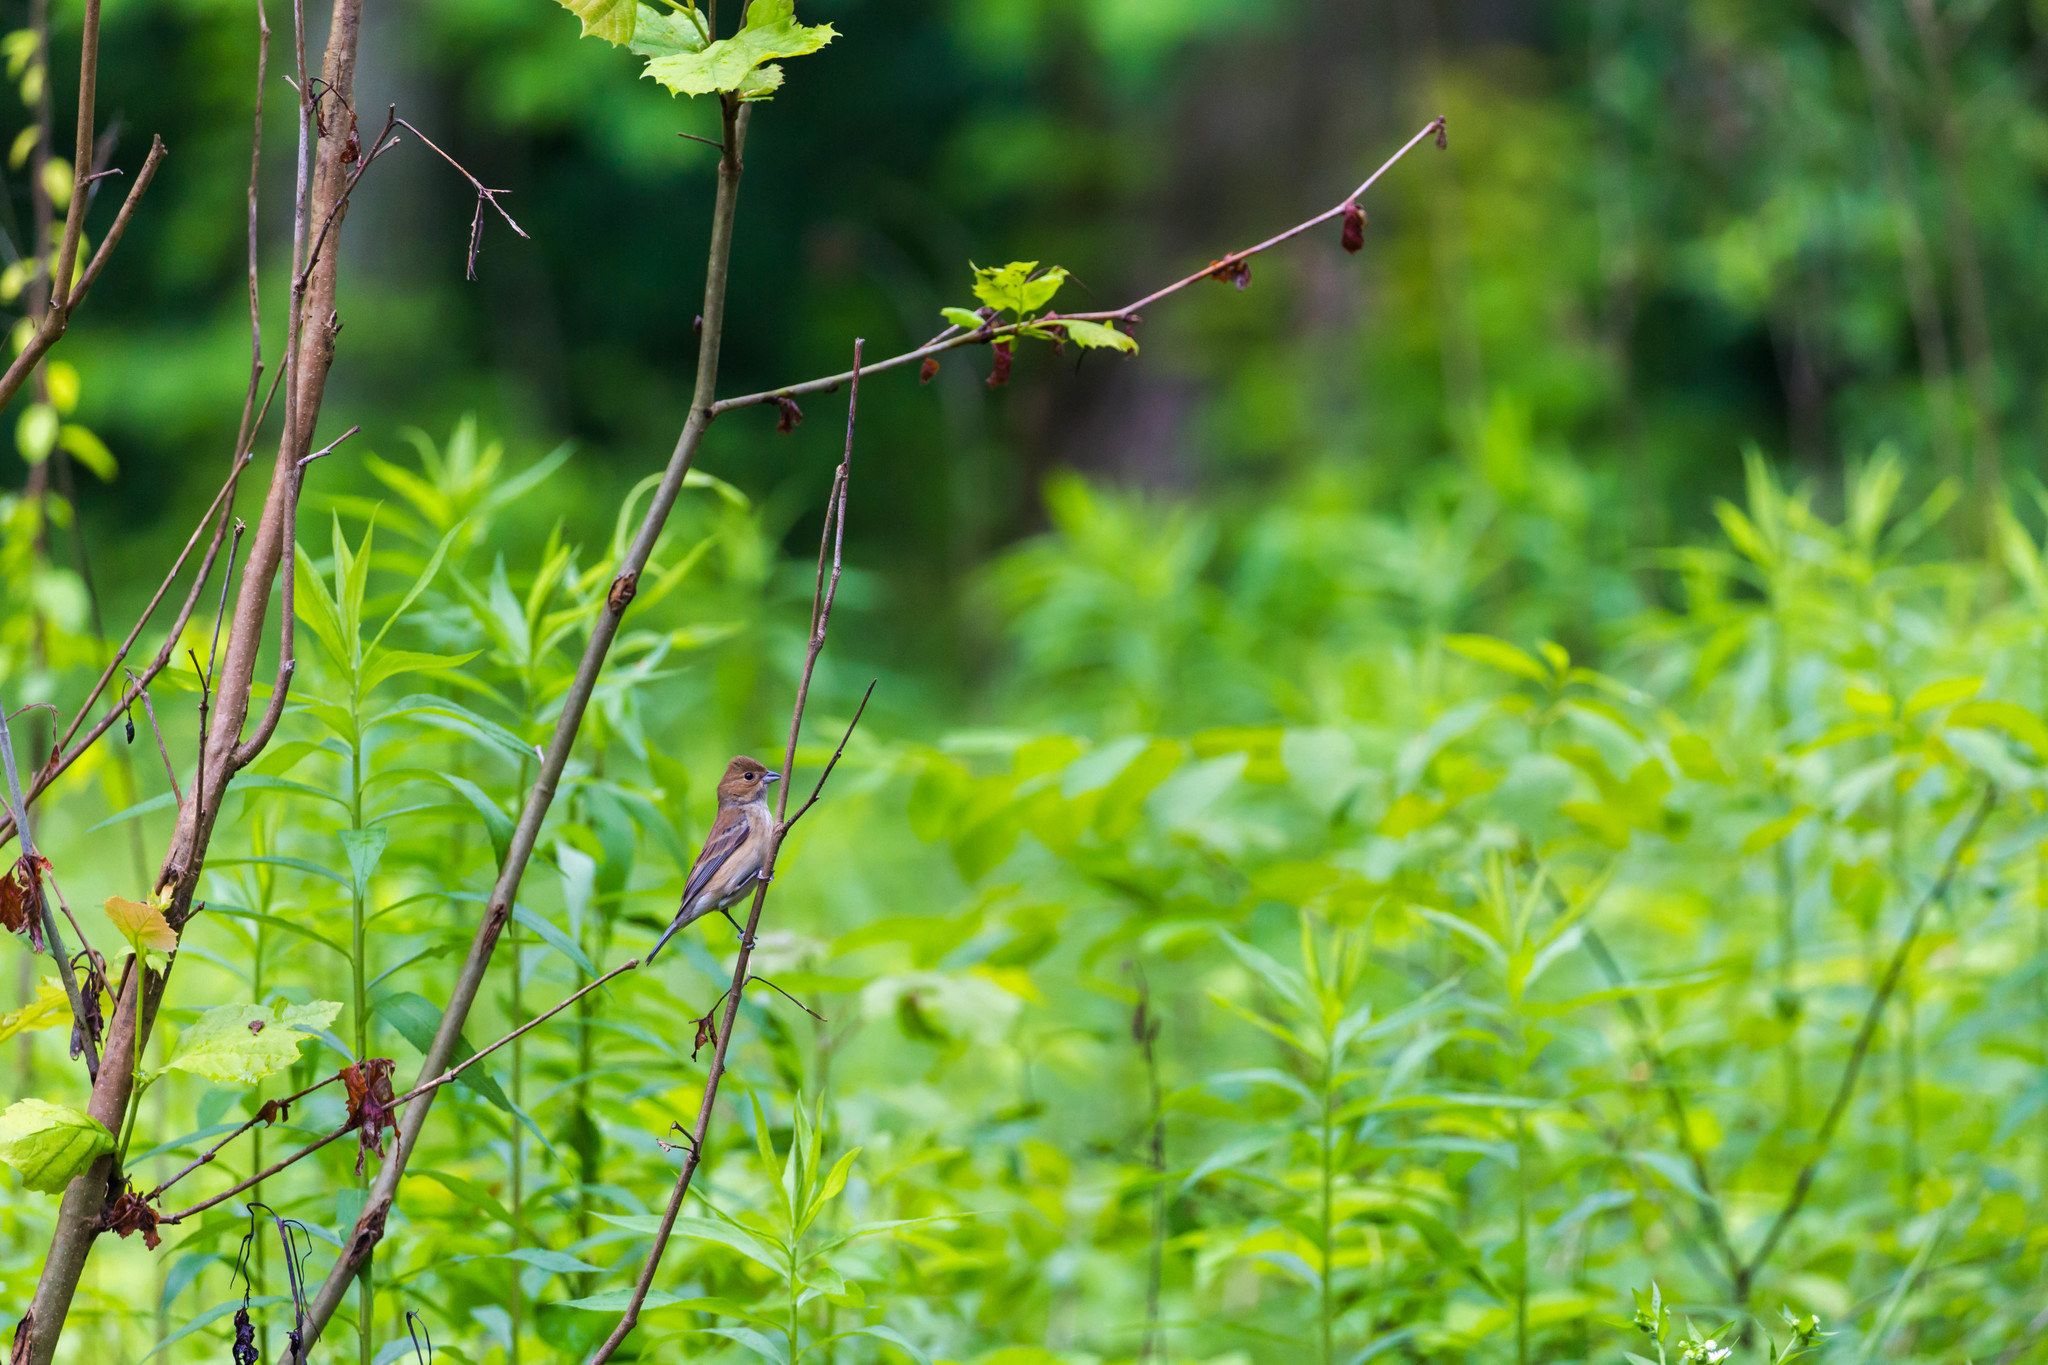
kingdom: Animalia
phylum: Chordata
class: Aves
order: Passeriformes
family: Cardinalidae
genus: Passerina
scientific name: Passerina cyanea
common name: Indigo bunting
